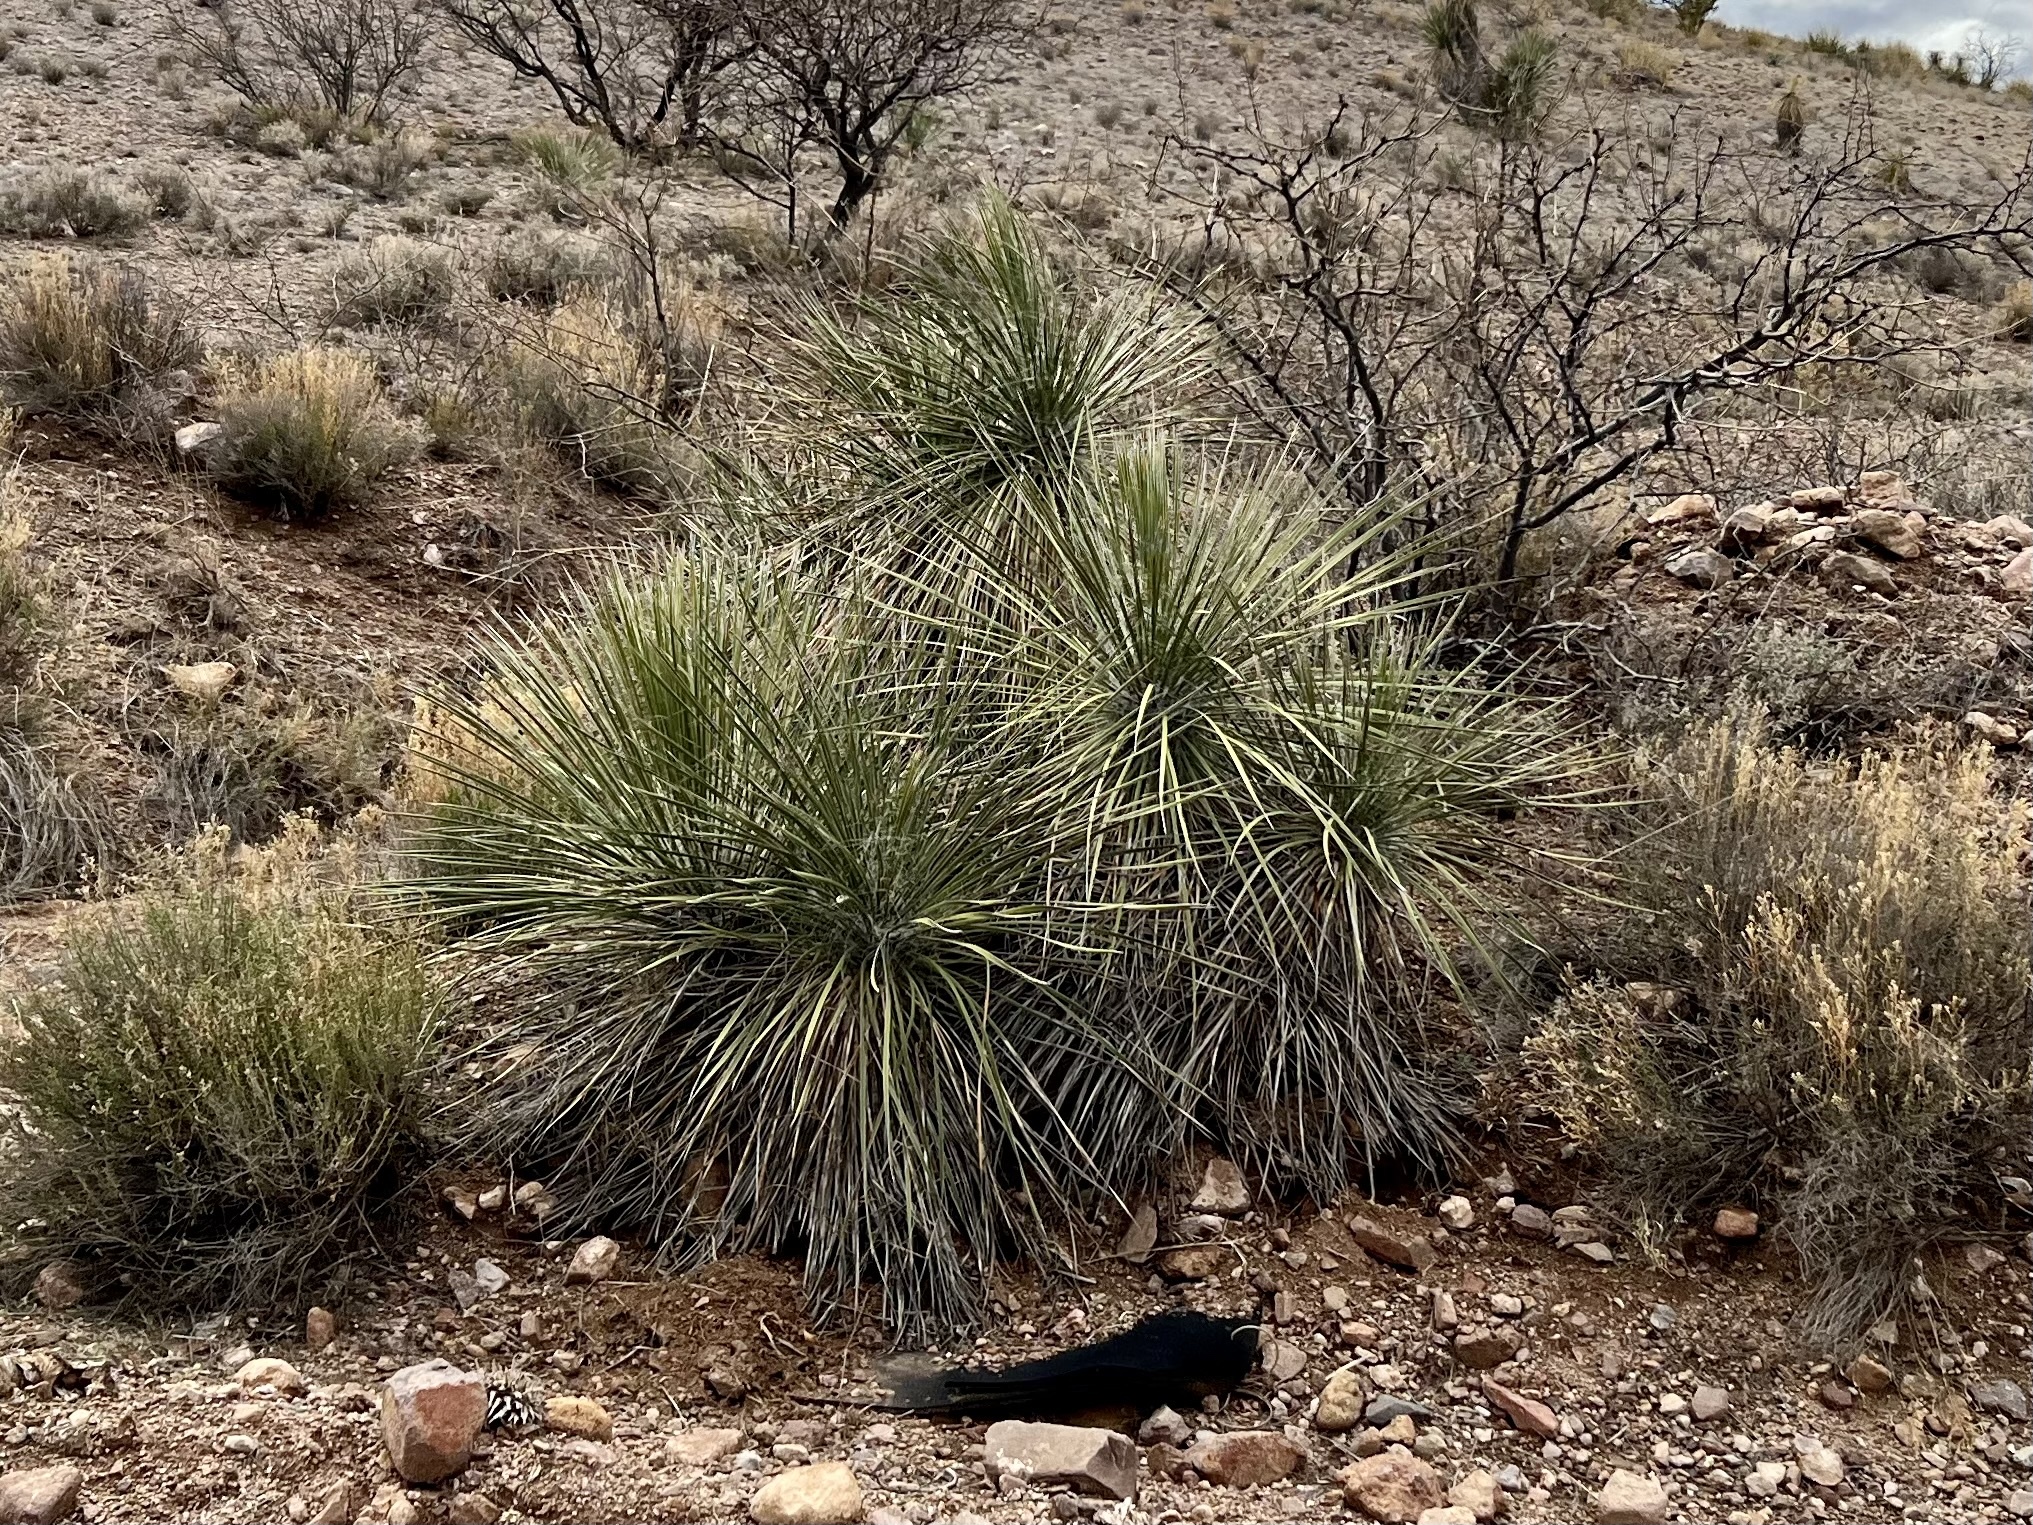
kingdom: Plantae
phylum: Tracheophyta
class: Liliopsida
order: Asparagales
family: Asparagaceae
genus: Yucca
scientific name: Yucca elata
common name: Palmella
